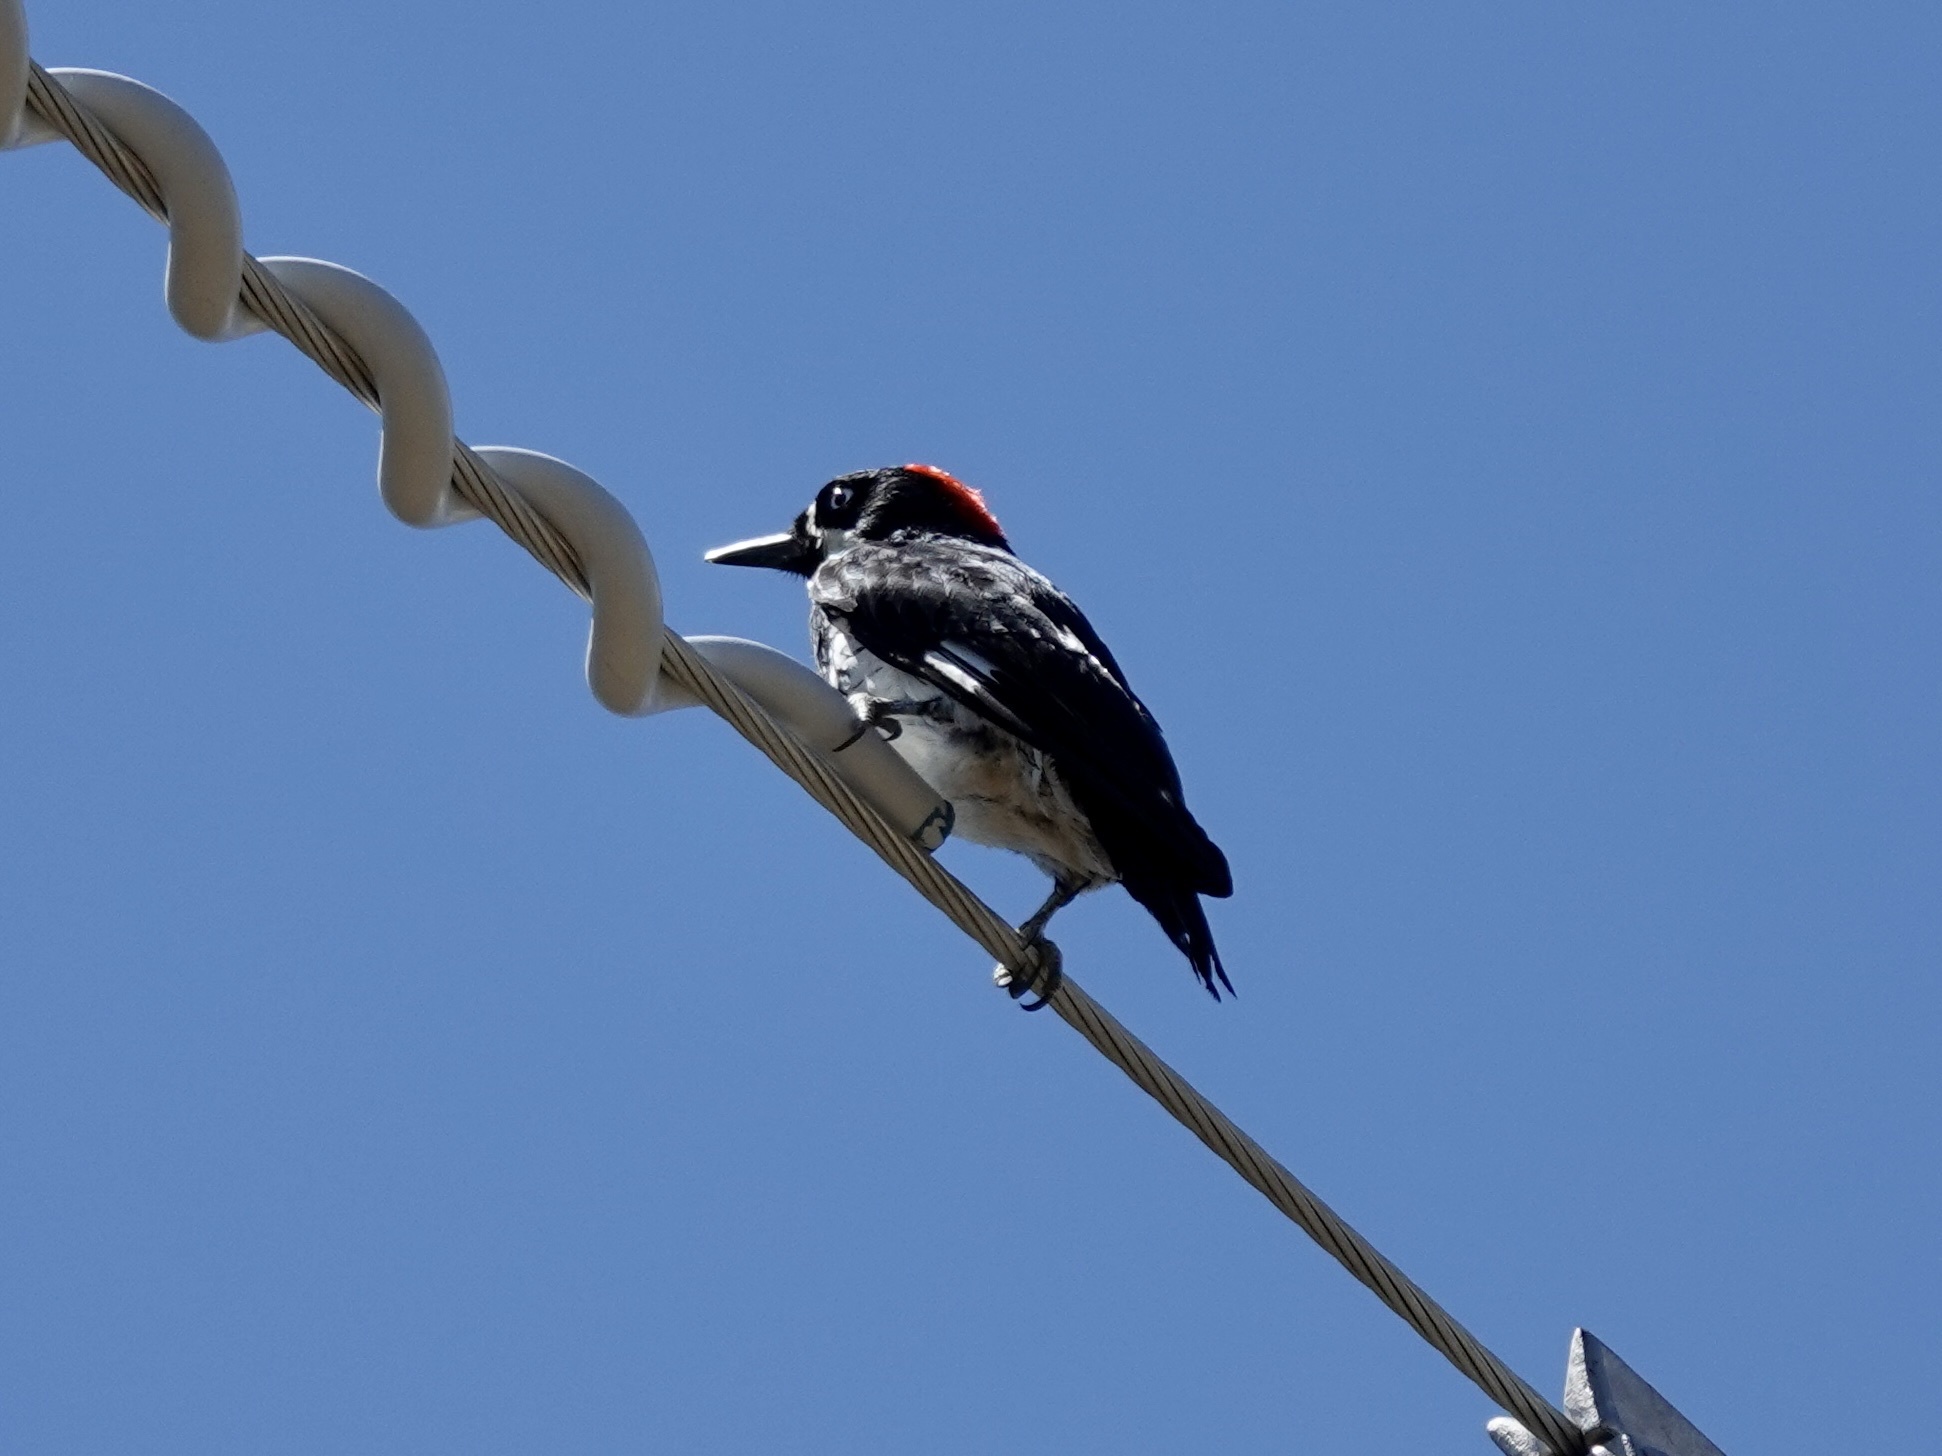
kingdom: Animalia
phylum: Chordata
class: Aves
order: Piciformes
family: Picidae
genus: Melanerpes
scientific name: Melanerpes formicivorus
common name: Acorn woodpecker
